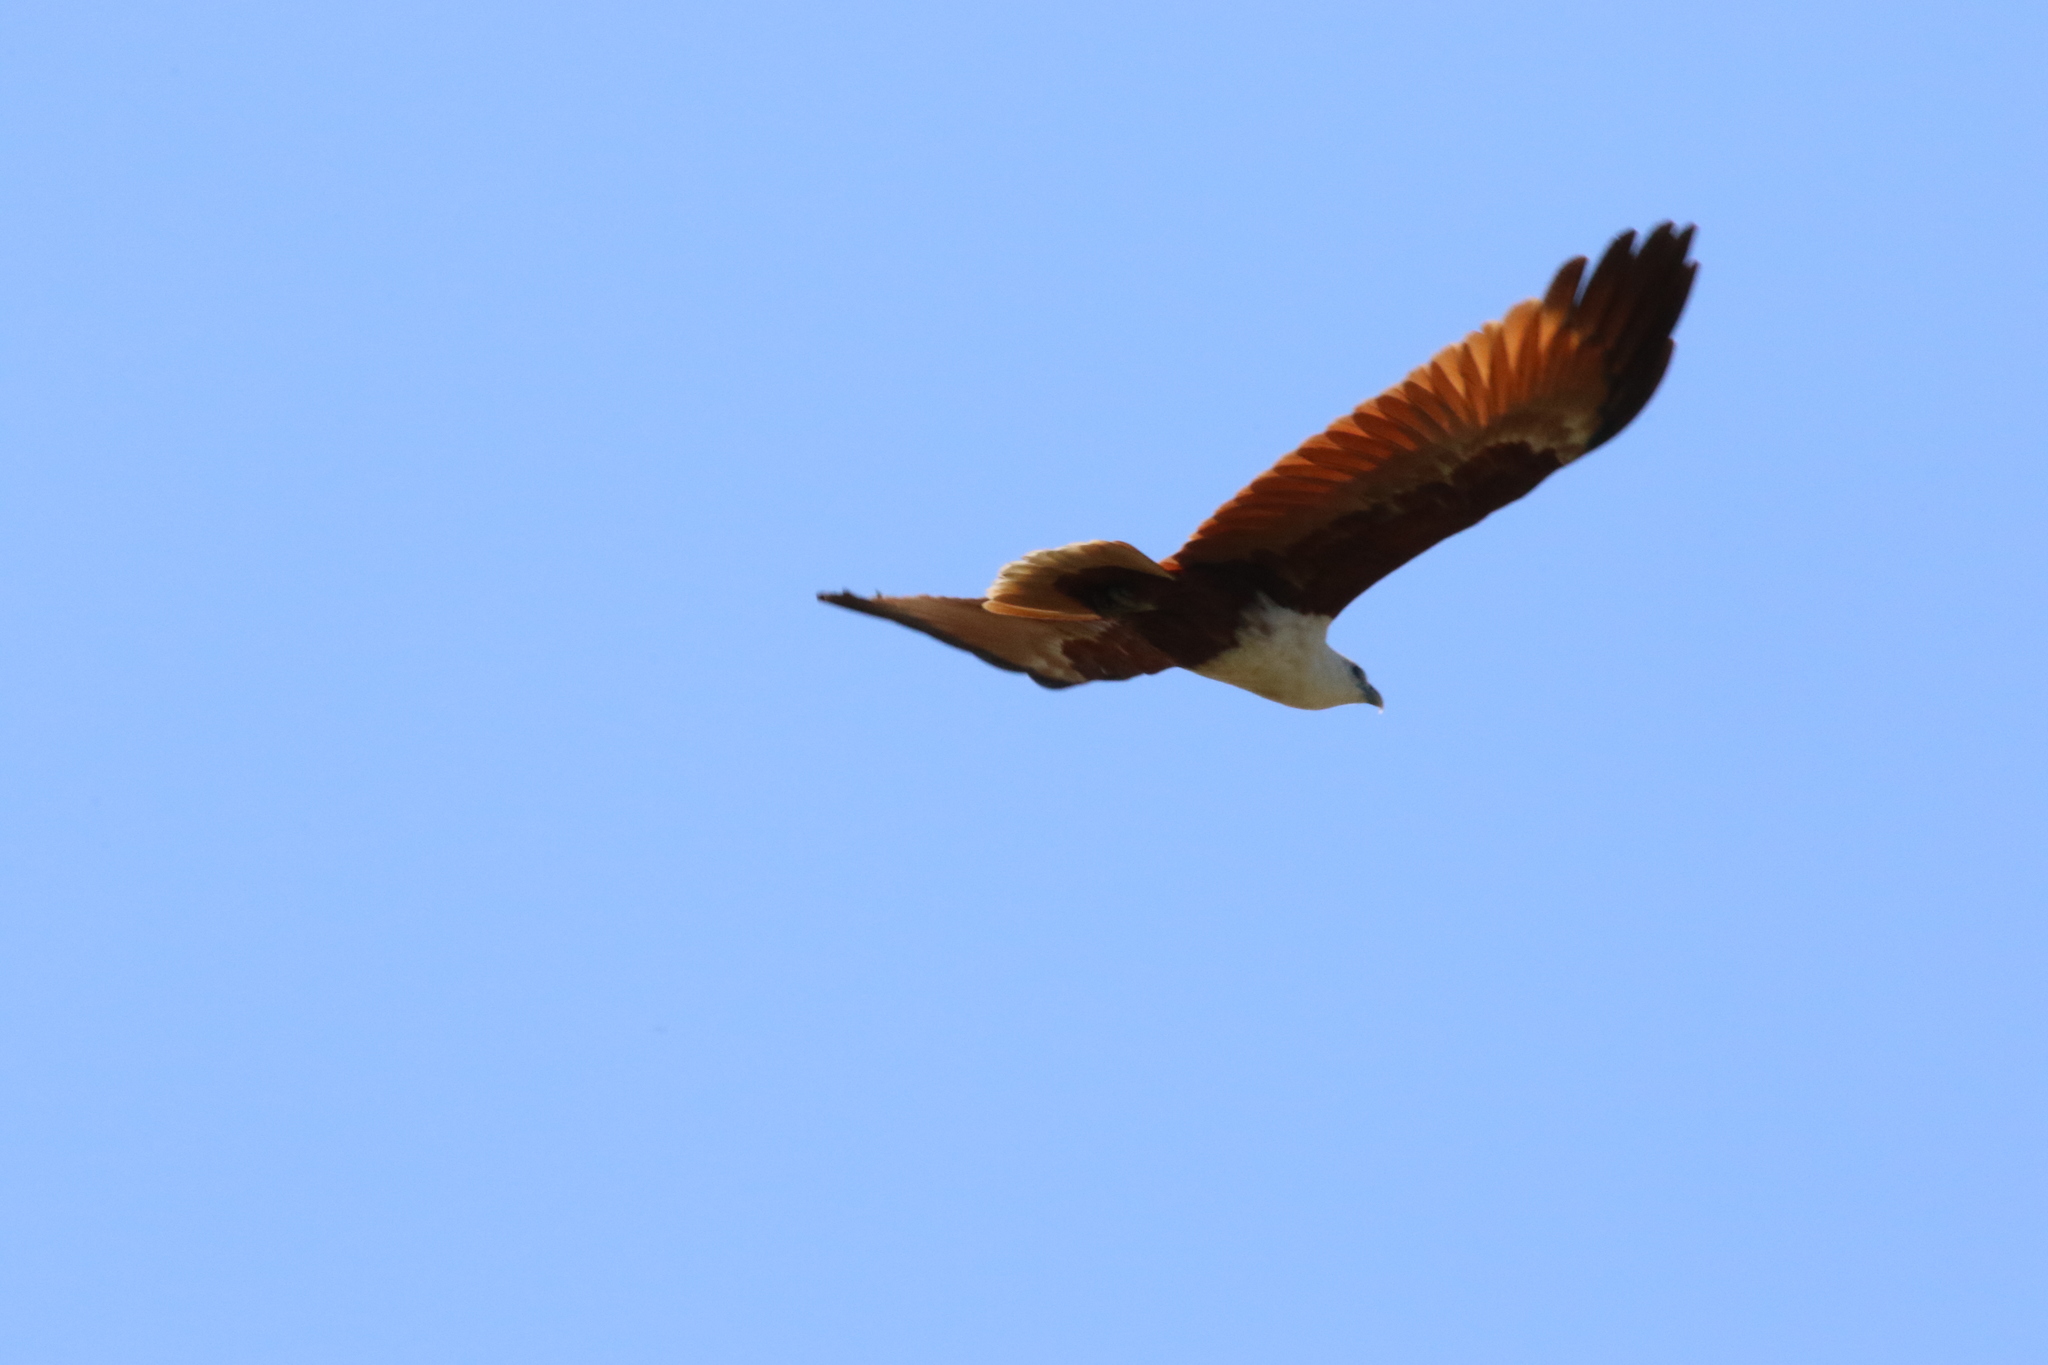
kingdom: Animalia
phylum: Chordata
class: Aves
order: Accipitriformes
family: Accipitridae
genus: Haliastur
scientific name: Haliastur indus
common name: Brahminy kite
